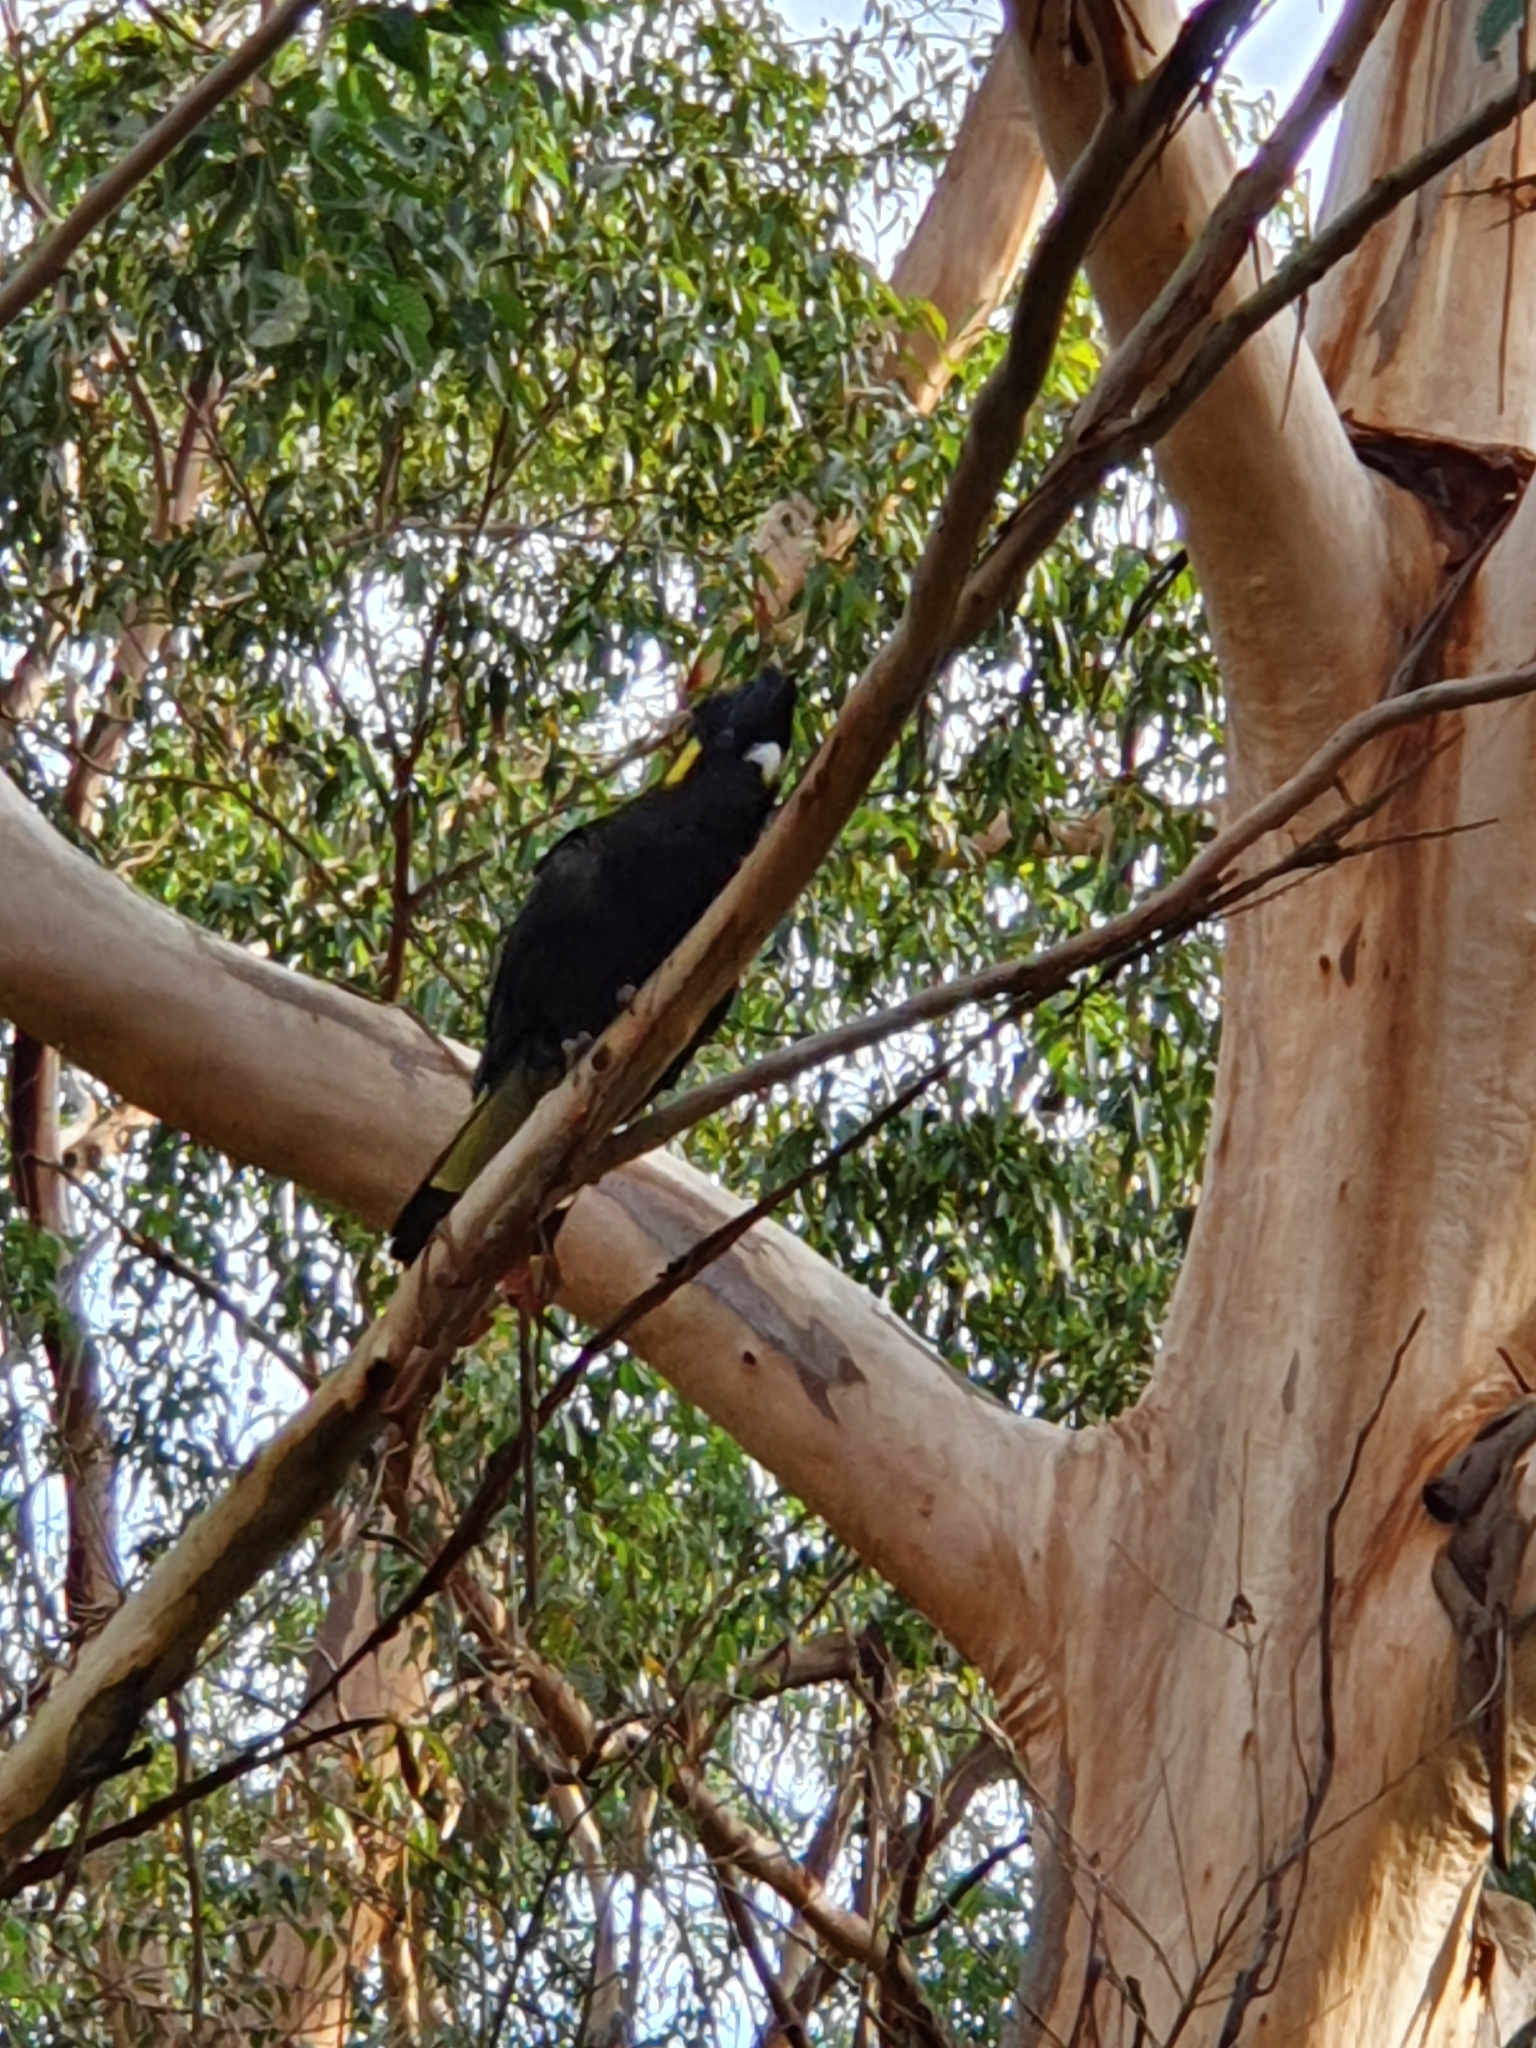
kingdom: Animalia
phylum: Chordata
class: Aves
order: Psittaciformes
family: Cacatuidae
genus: Zanda
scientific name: Zanda funerea
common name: Yellow-tailed black-cockatoo
